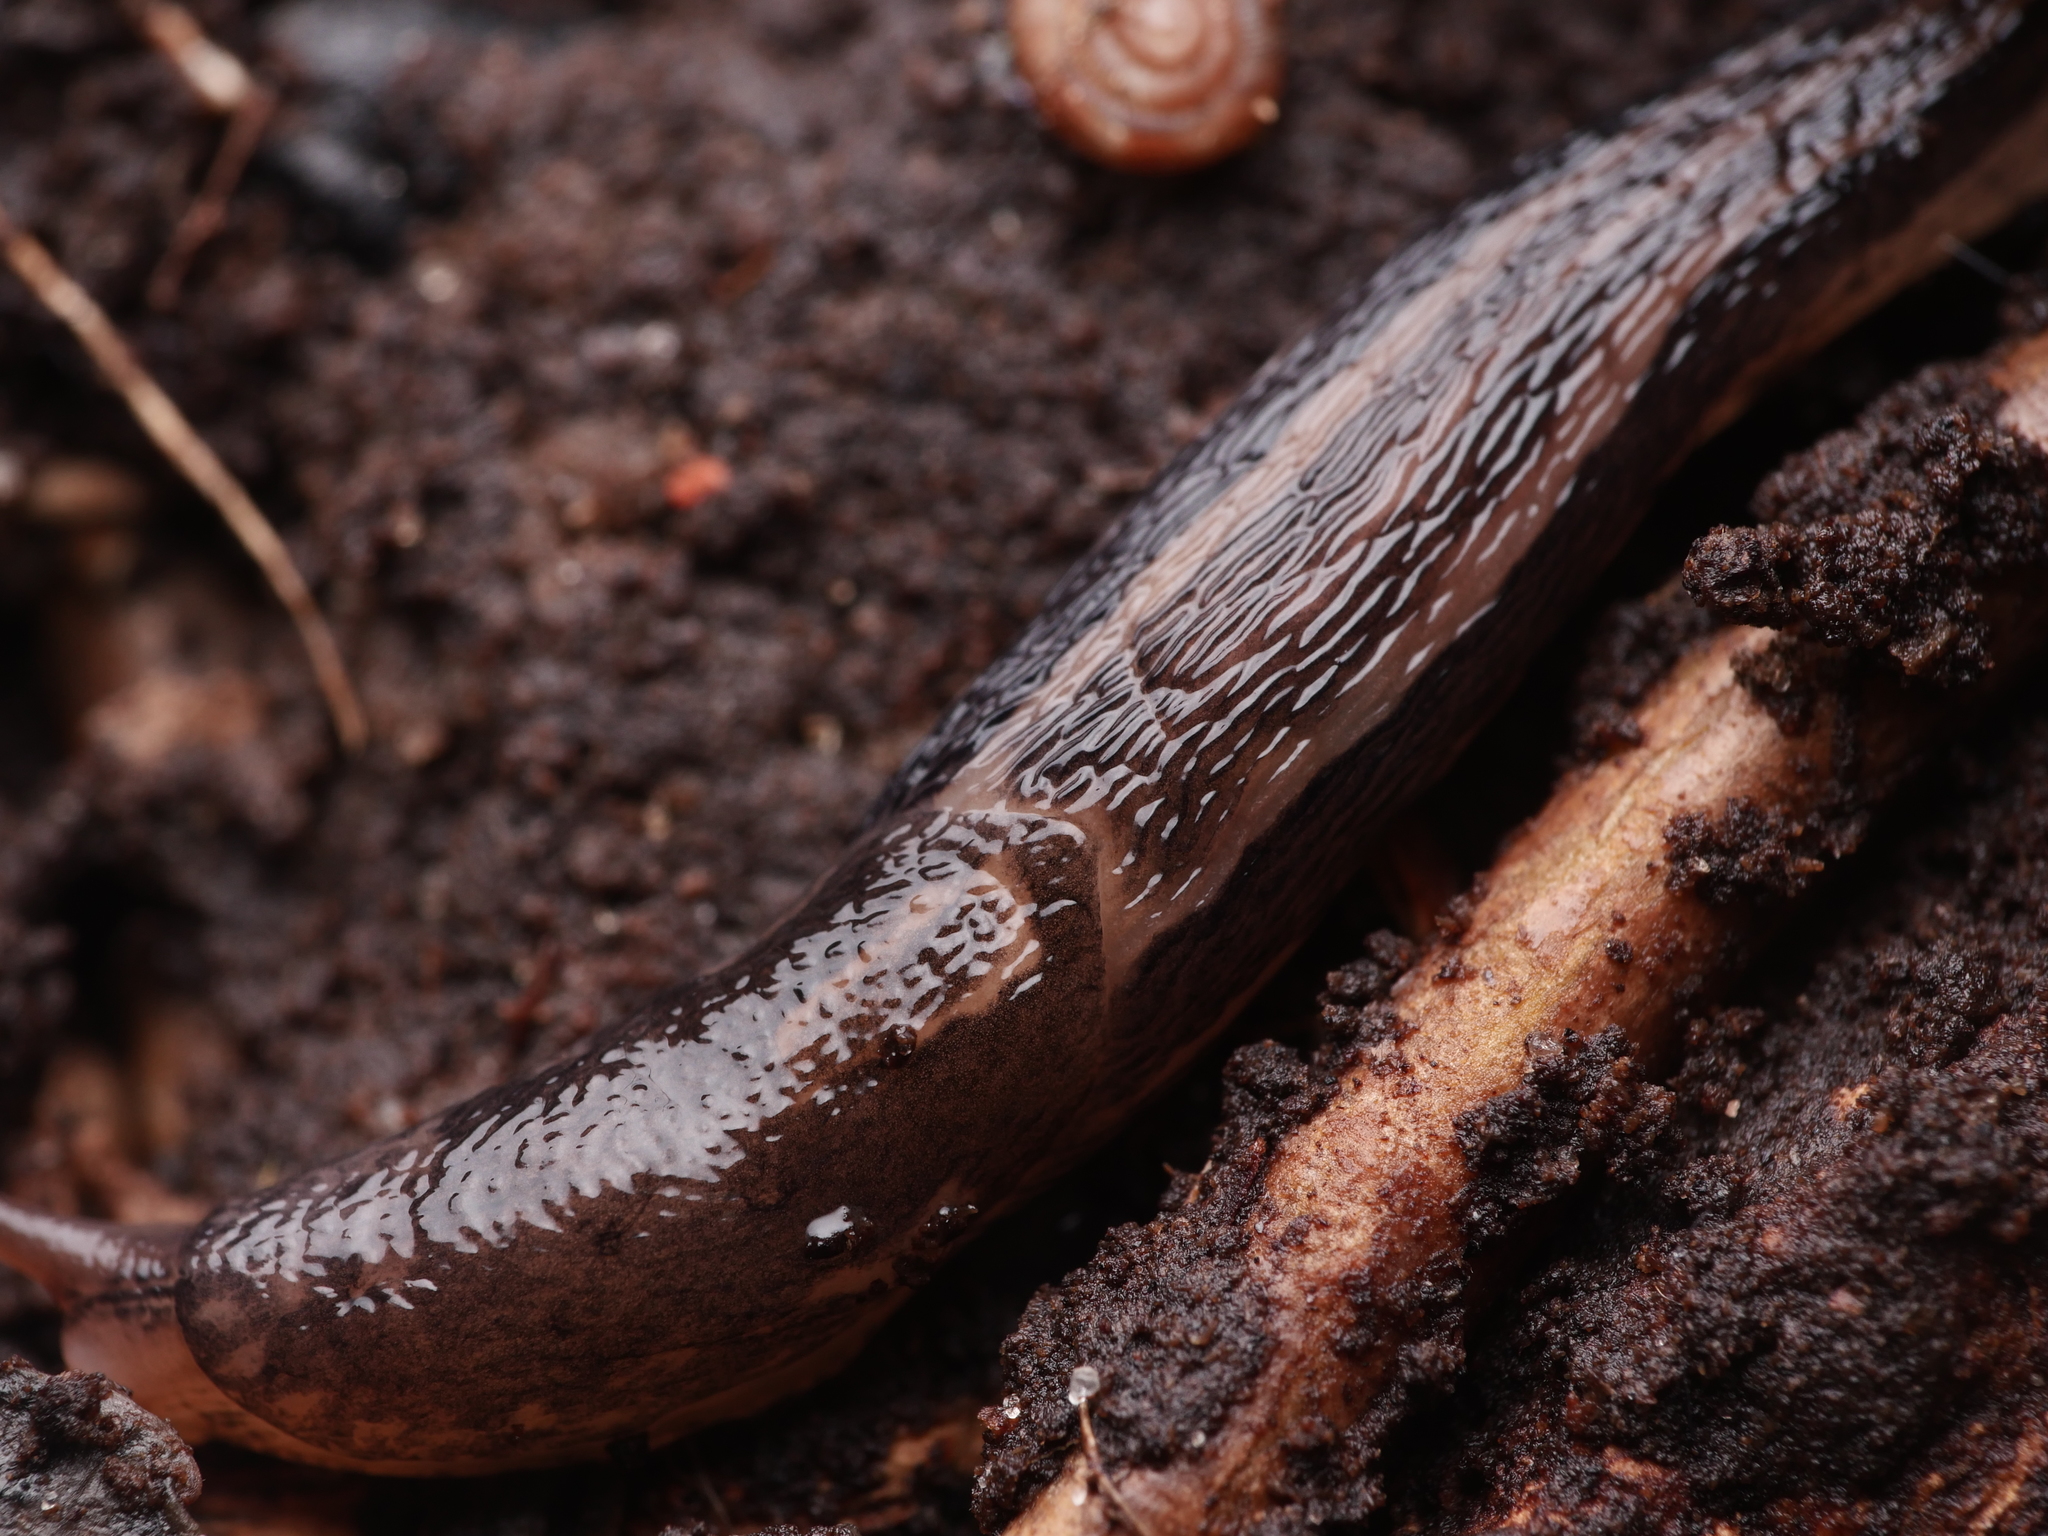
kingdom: Animalia
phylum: Mollusca
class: Gastropoda
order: Stylommatophora
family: Limacidae
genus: Limax
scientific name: Limax maximus
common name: Great grey slug
